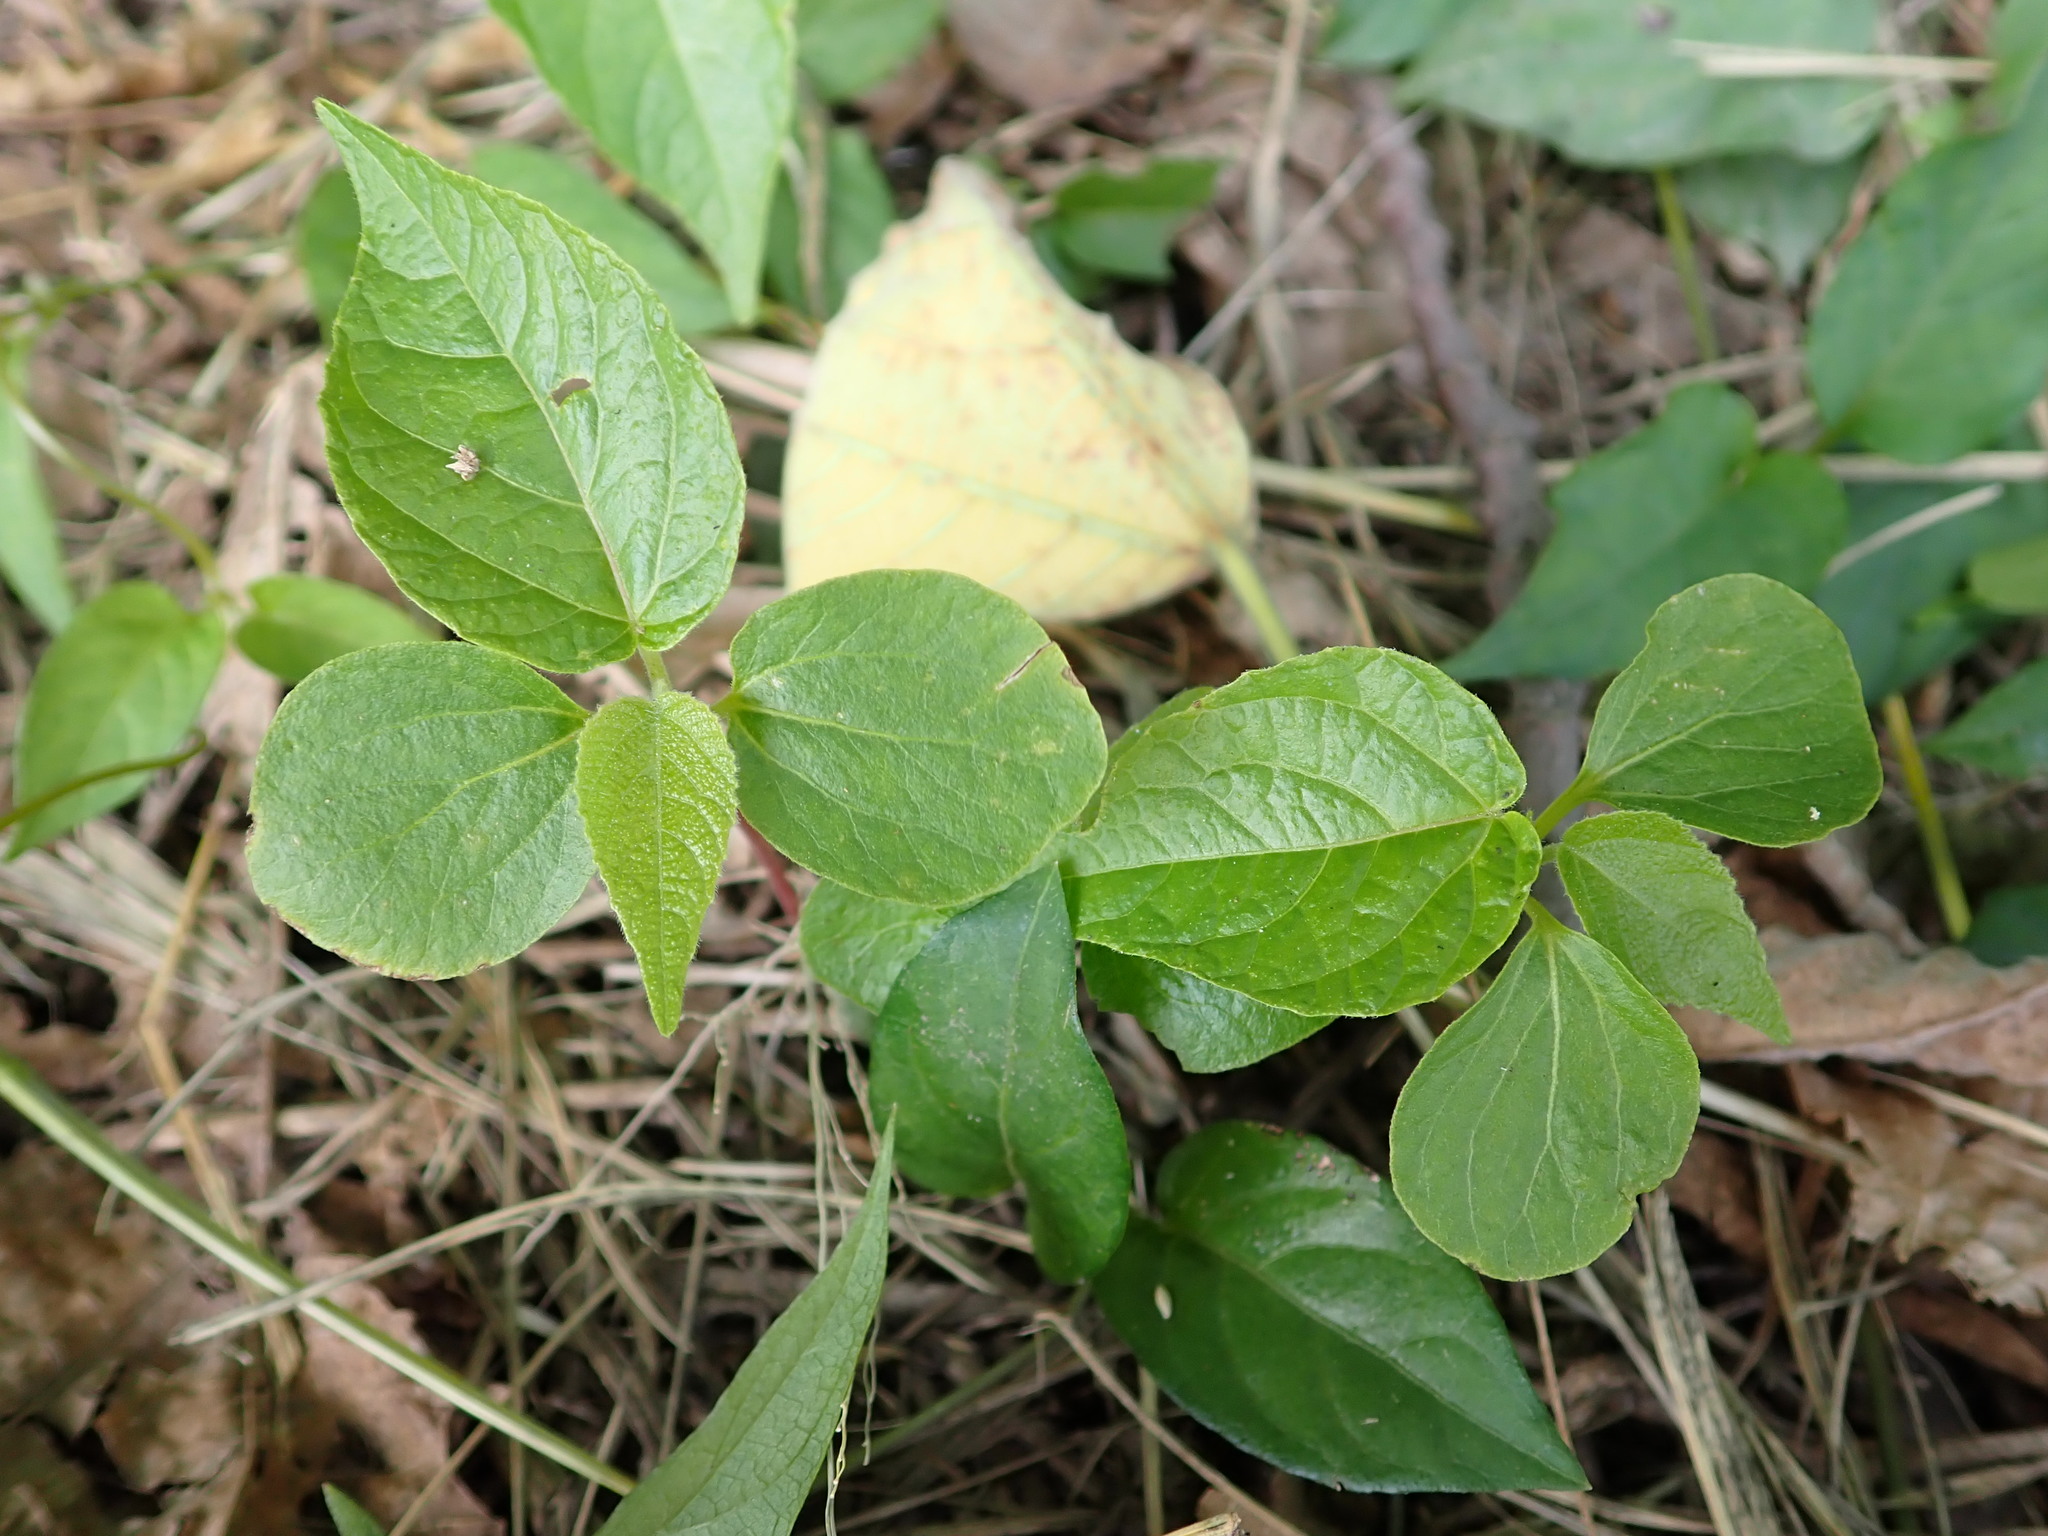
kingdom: Plantae
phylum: Tracheophyta
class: Magnoliopsida
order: Malpighiales
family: Euphorbiaceae
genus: Acalypha
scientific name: Acalypha australis
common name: Asian copperleaf
